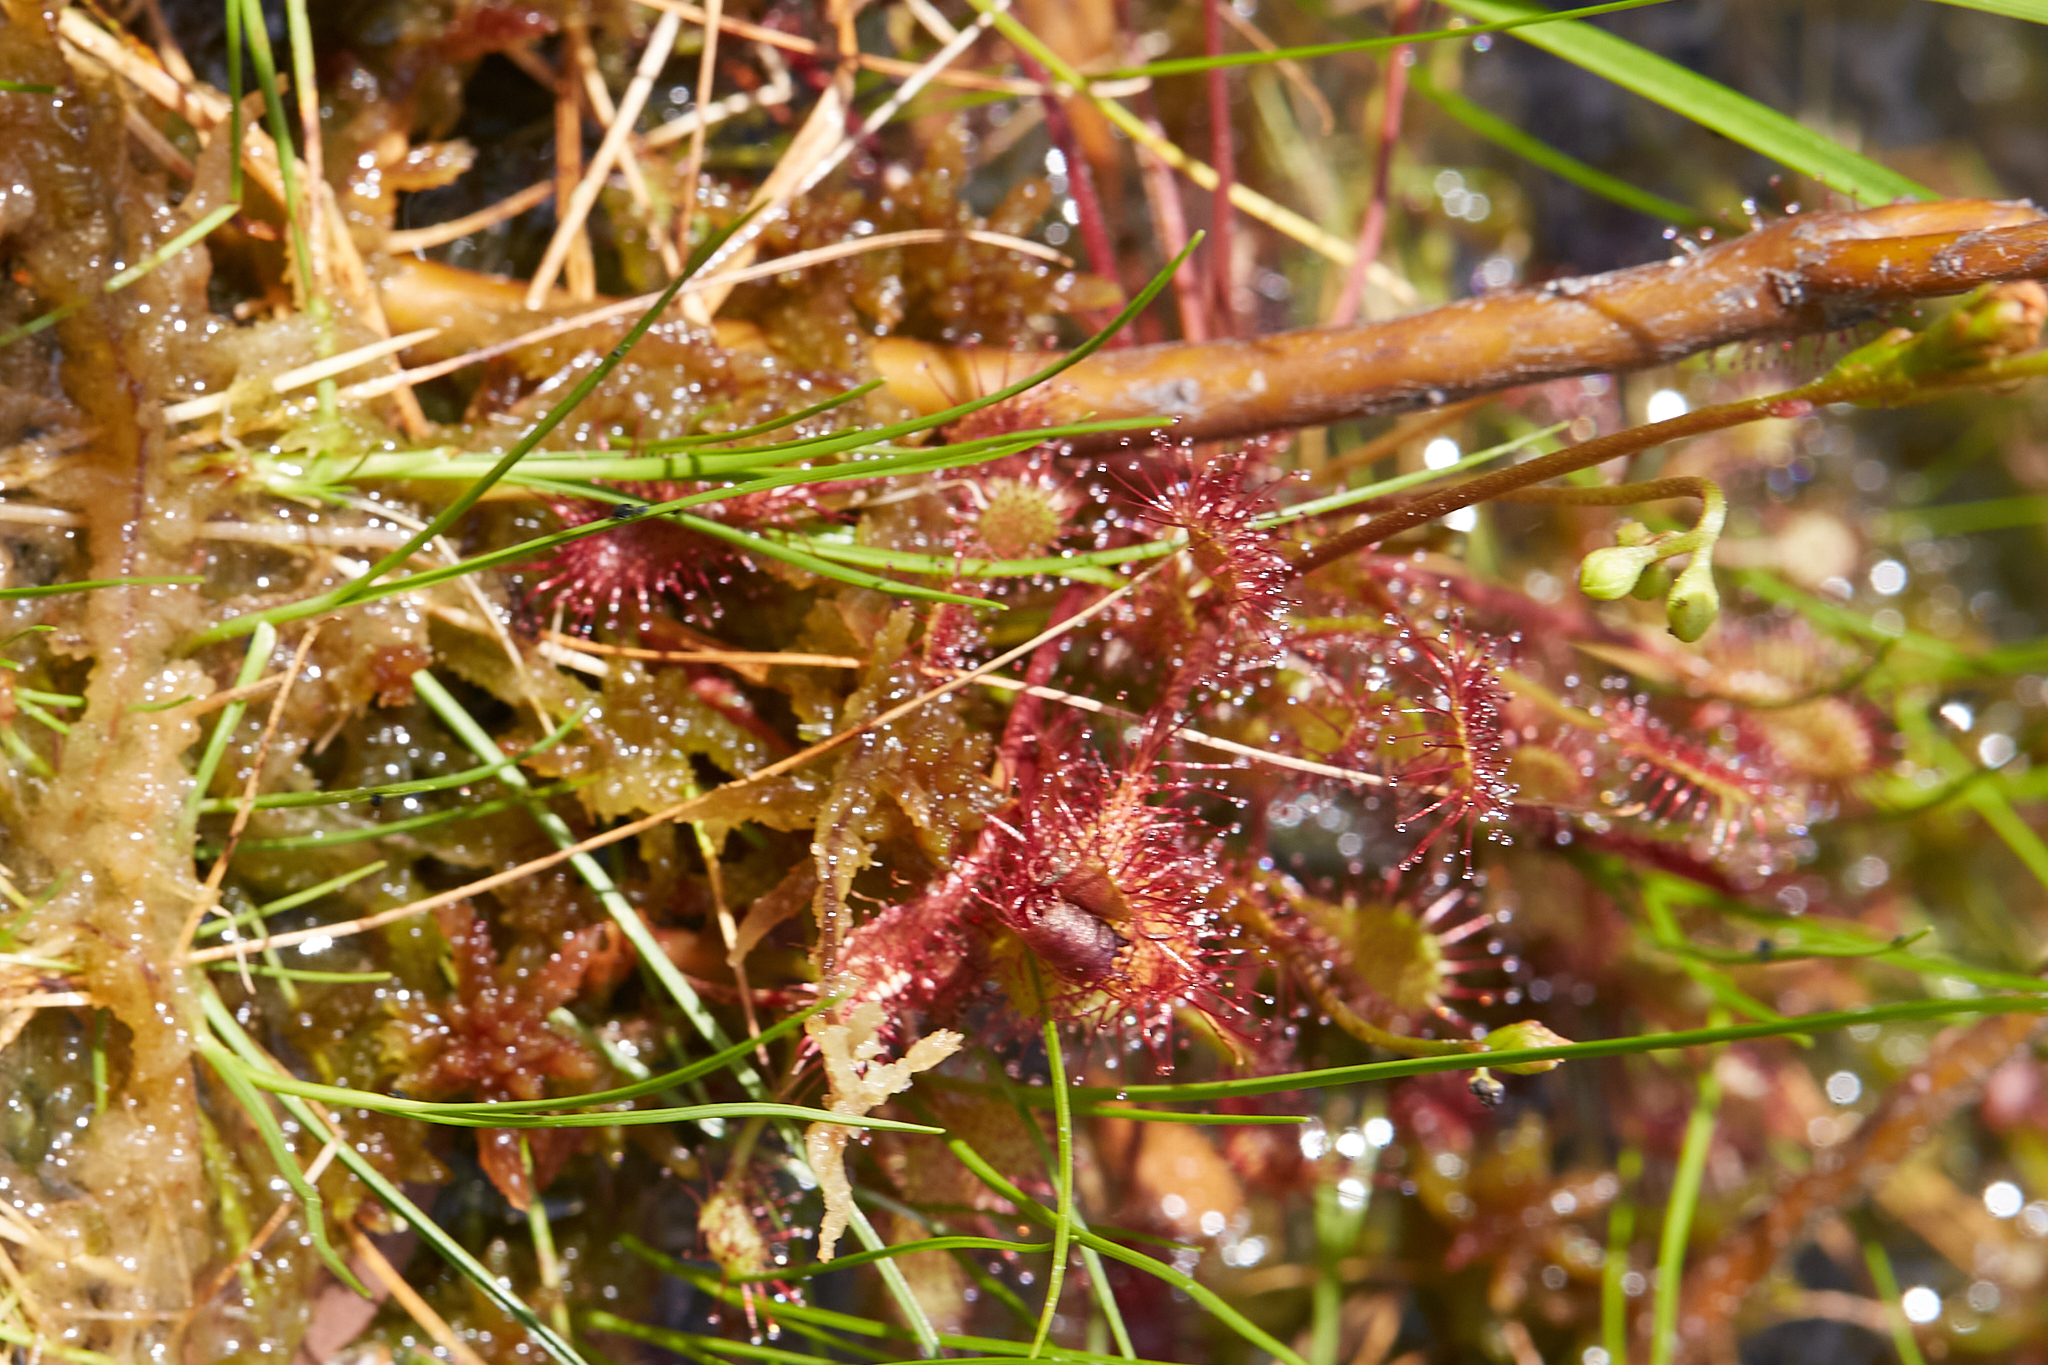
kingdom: Plantae
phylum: Tracheophyta
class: Magnoliopsida
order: Caryophyllales
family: Droseraceae
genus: Drosera
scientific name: Drosera intermedia
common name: Oblong-leaved sundew
